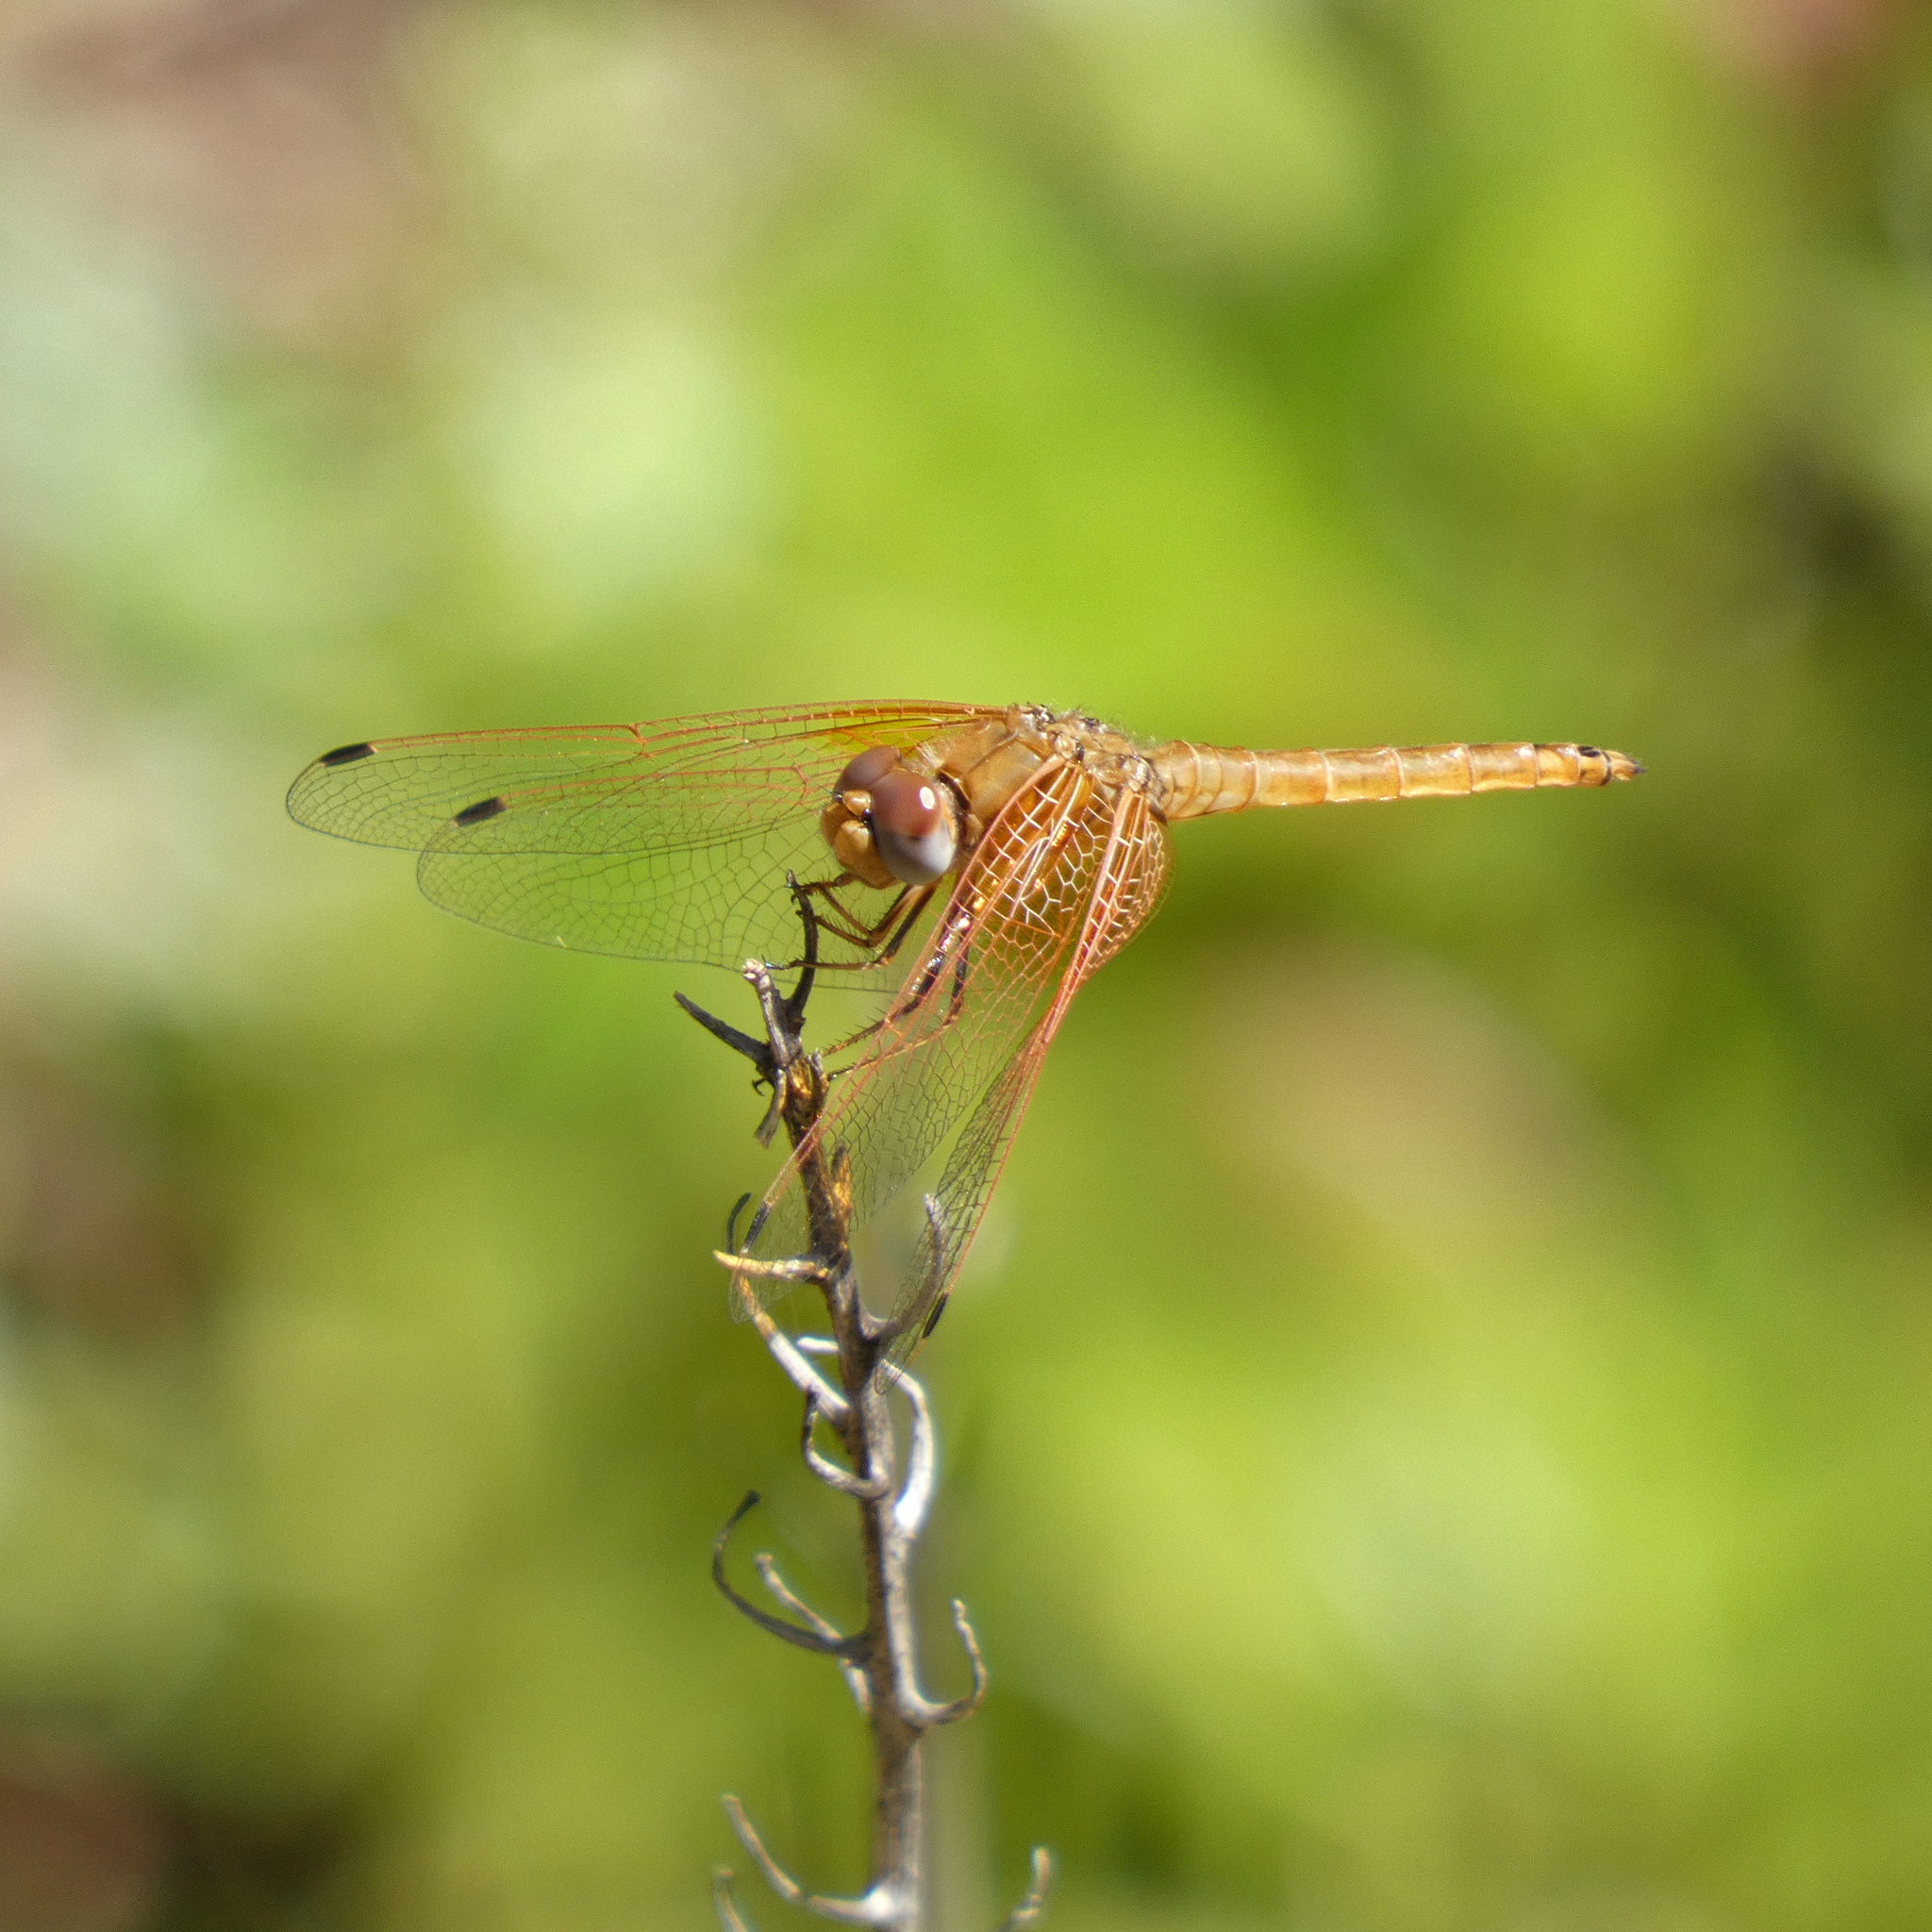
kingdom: Animalia
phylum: Arthropoda
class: Insecta
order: Odonata
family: Libellulidae
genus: Trithemis
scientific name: Trithemis kirbyi
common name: Kirby's dropwing
